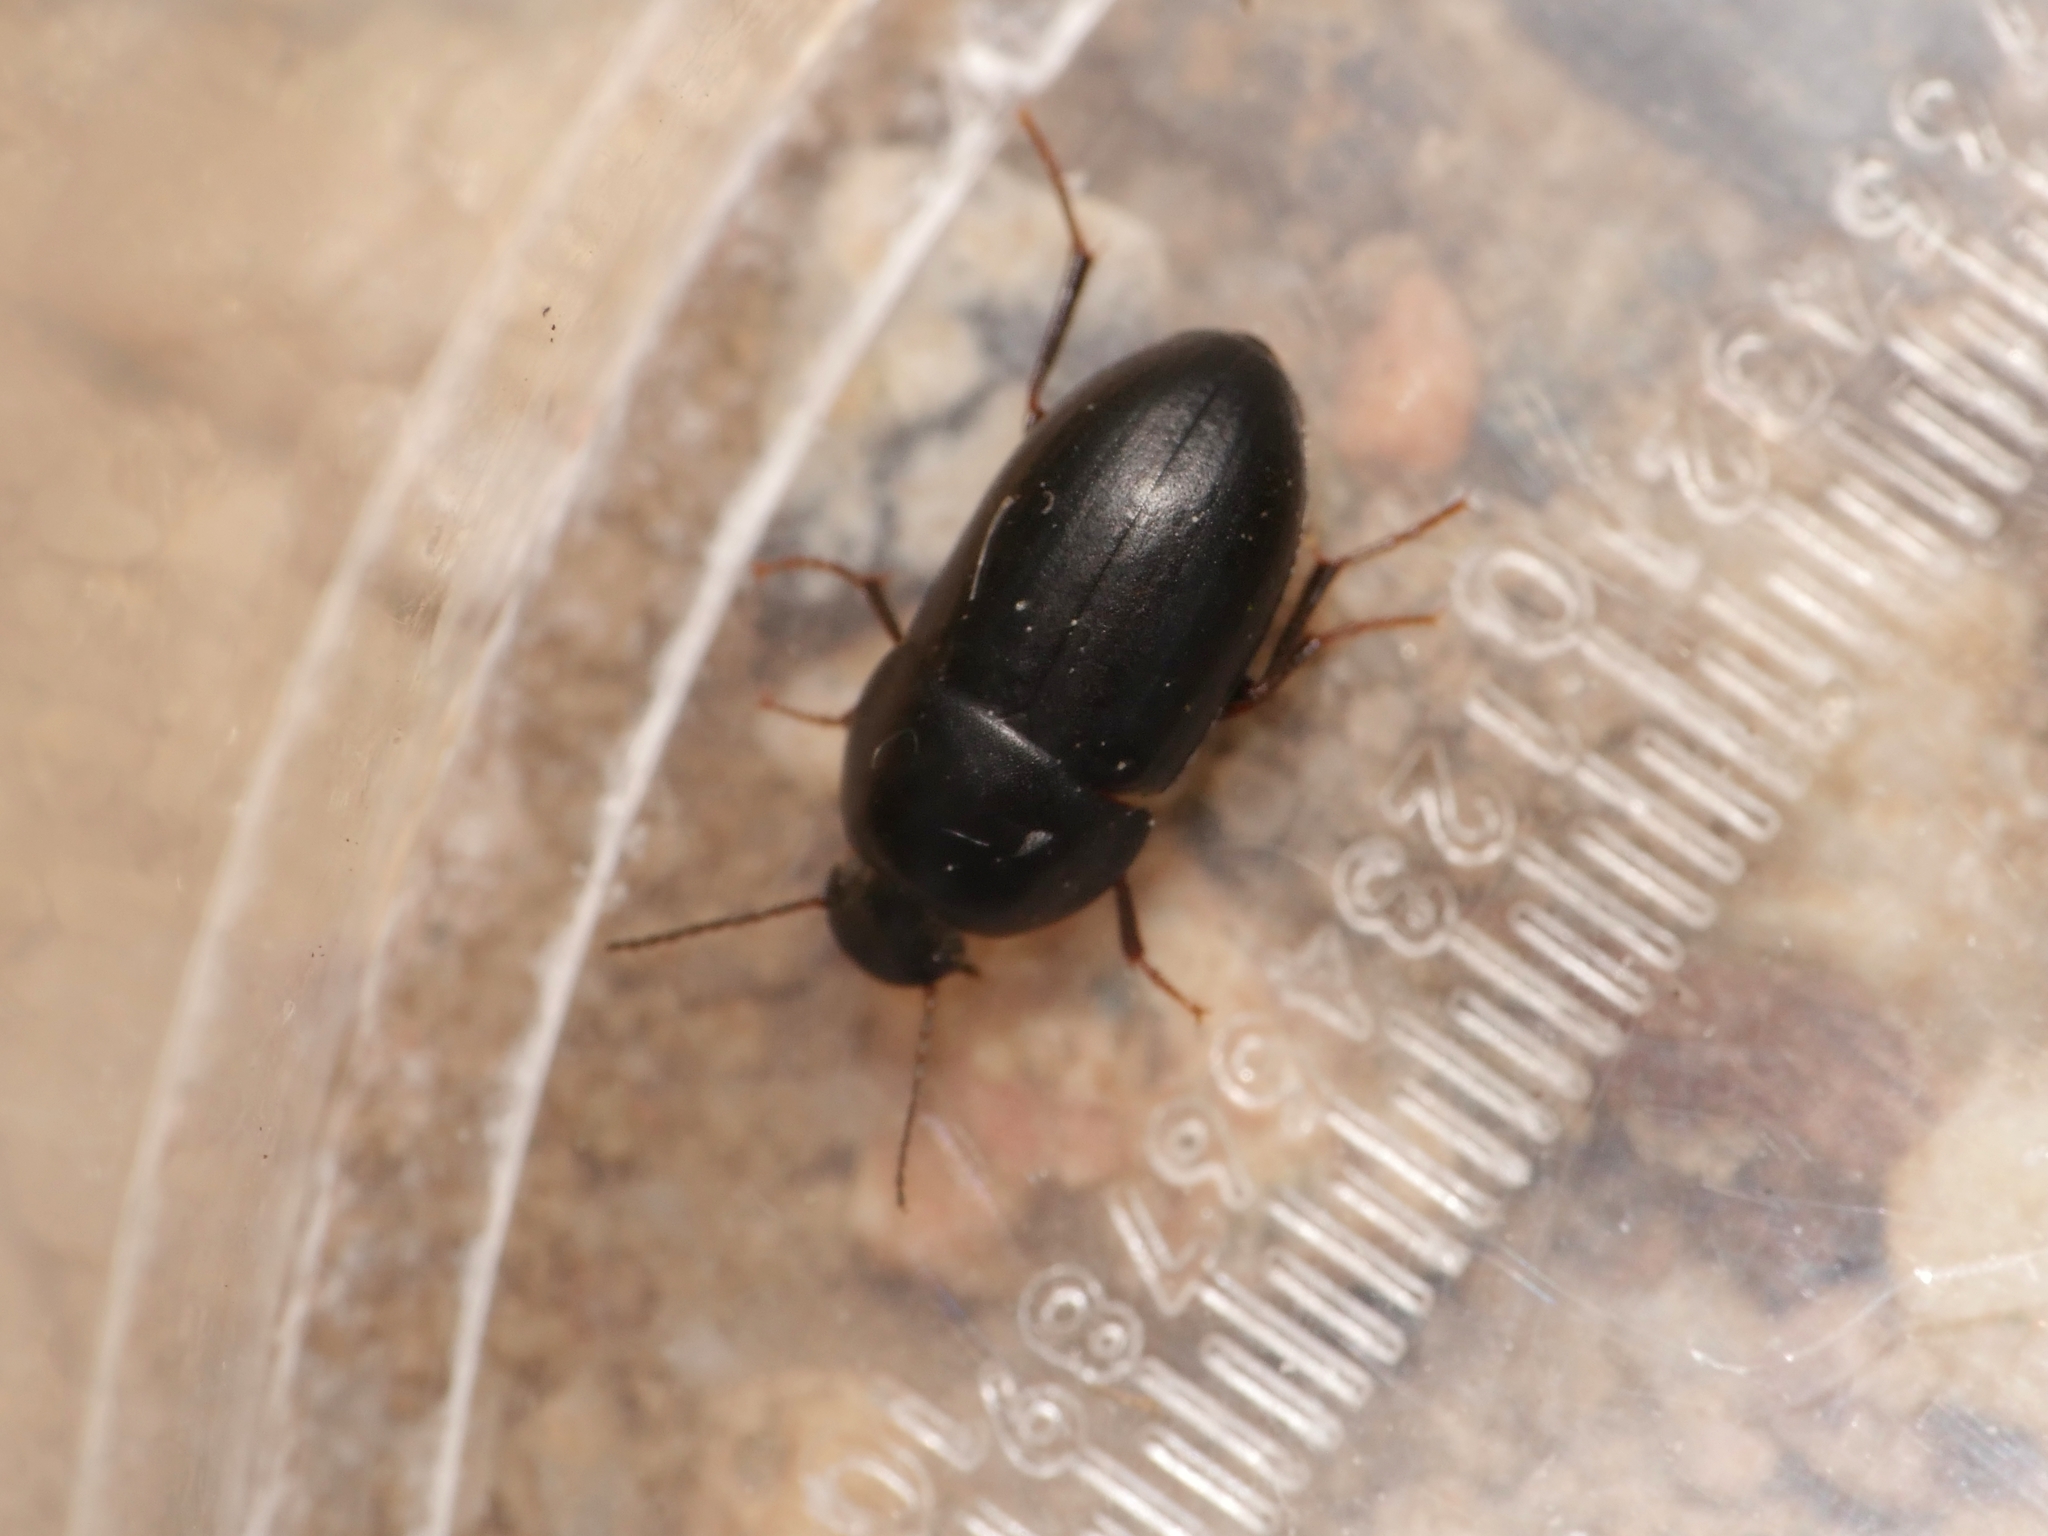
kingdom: Animalia
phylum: Arthropoda
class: Insecta
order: Coleoptera
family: Tenebrionidae
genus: Crypticus
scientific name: Crypticus quisquilius
